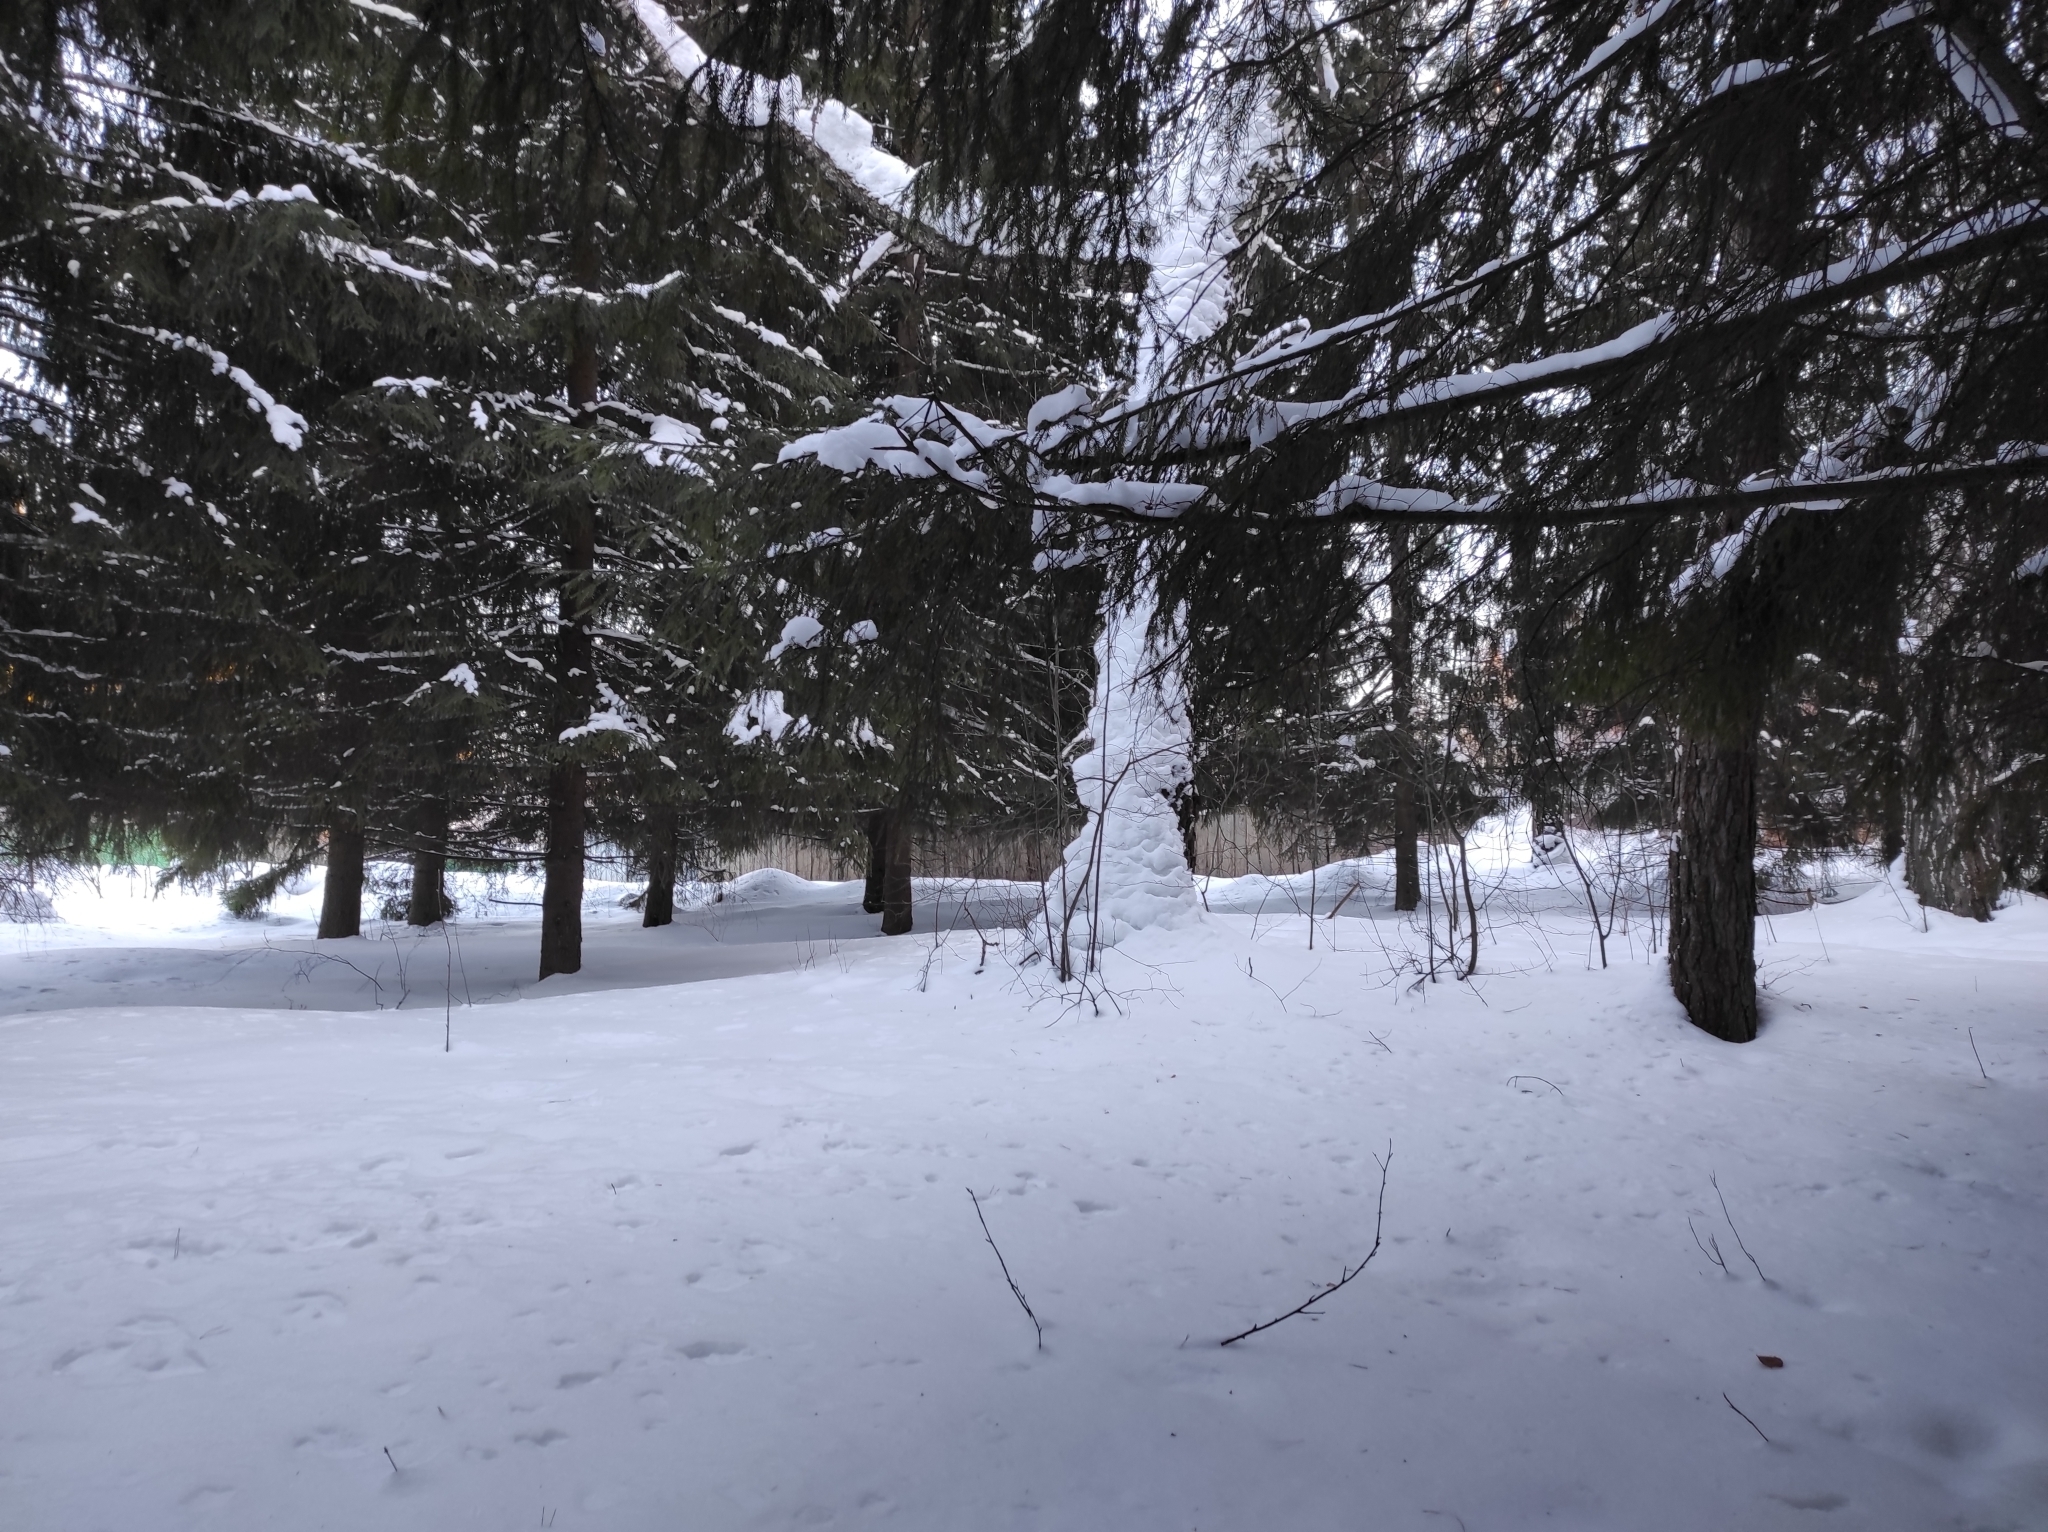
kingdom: Plantae
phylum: Tracheophyta
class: Magnoliopsida
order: Fagales
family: Betulaceae
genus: Betula
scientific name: Betula pendula
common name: Silver birch
